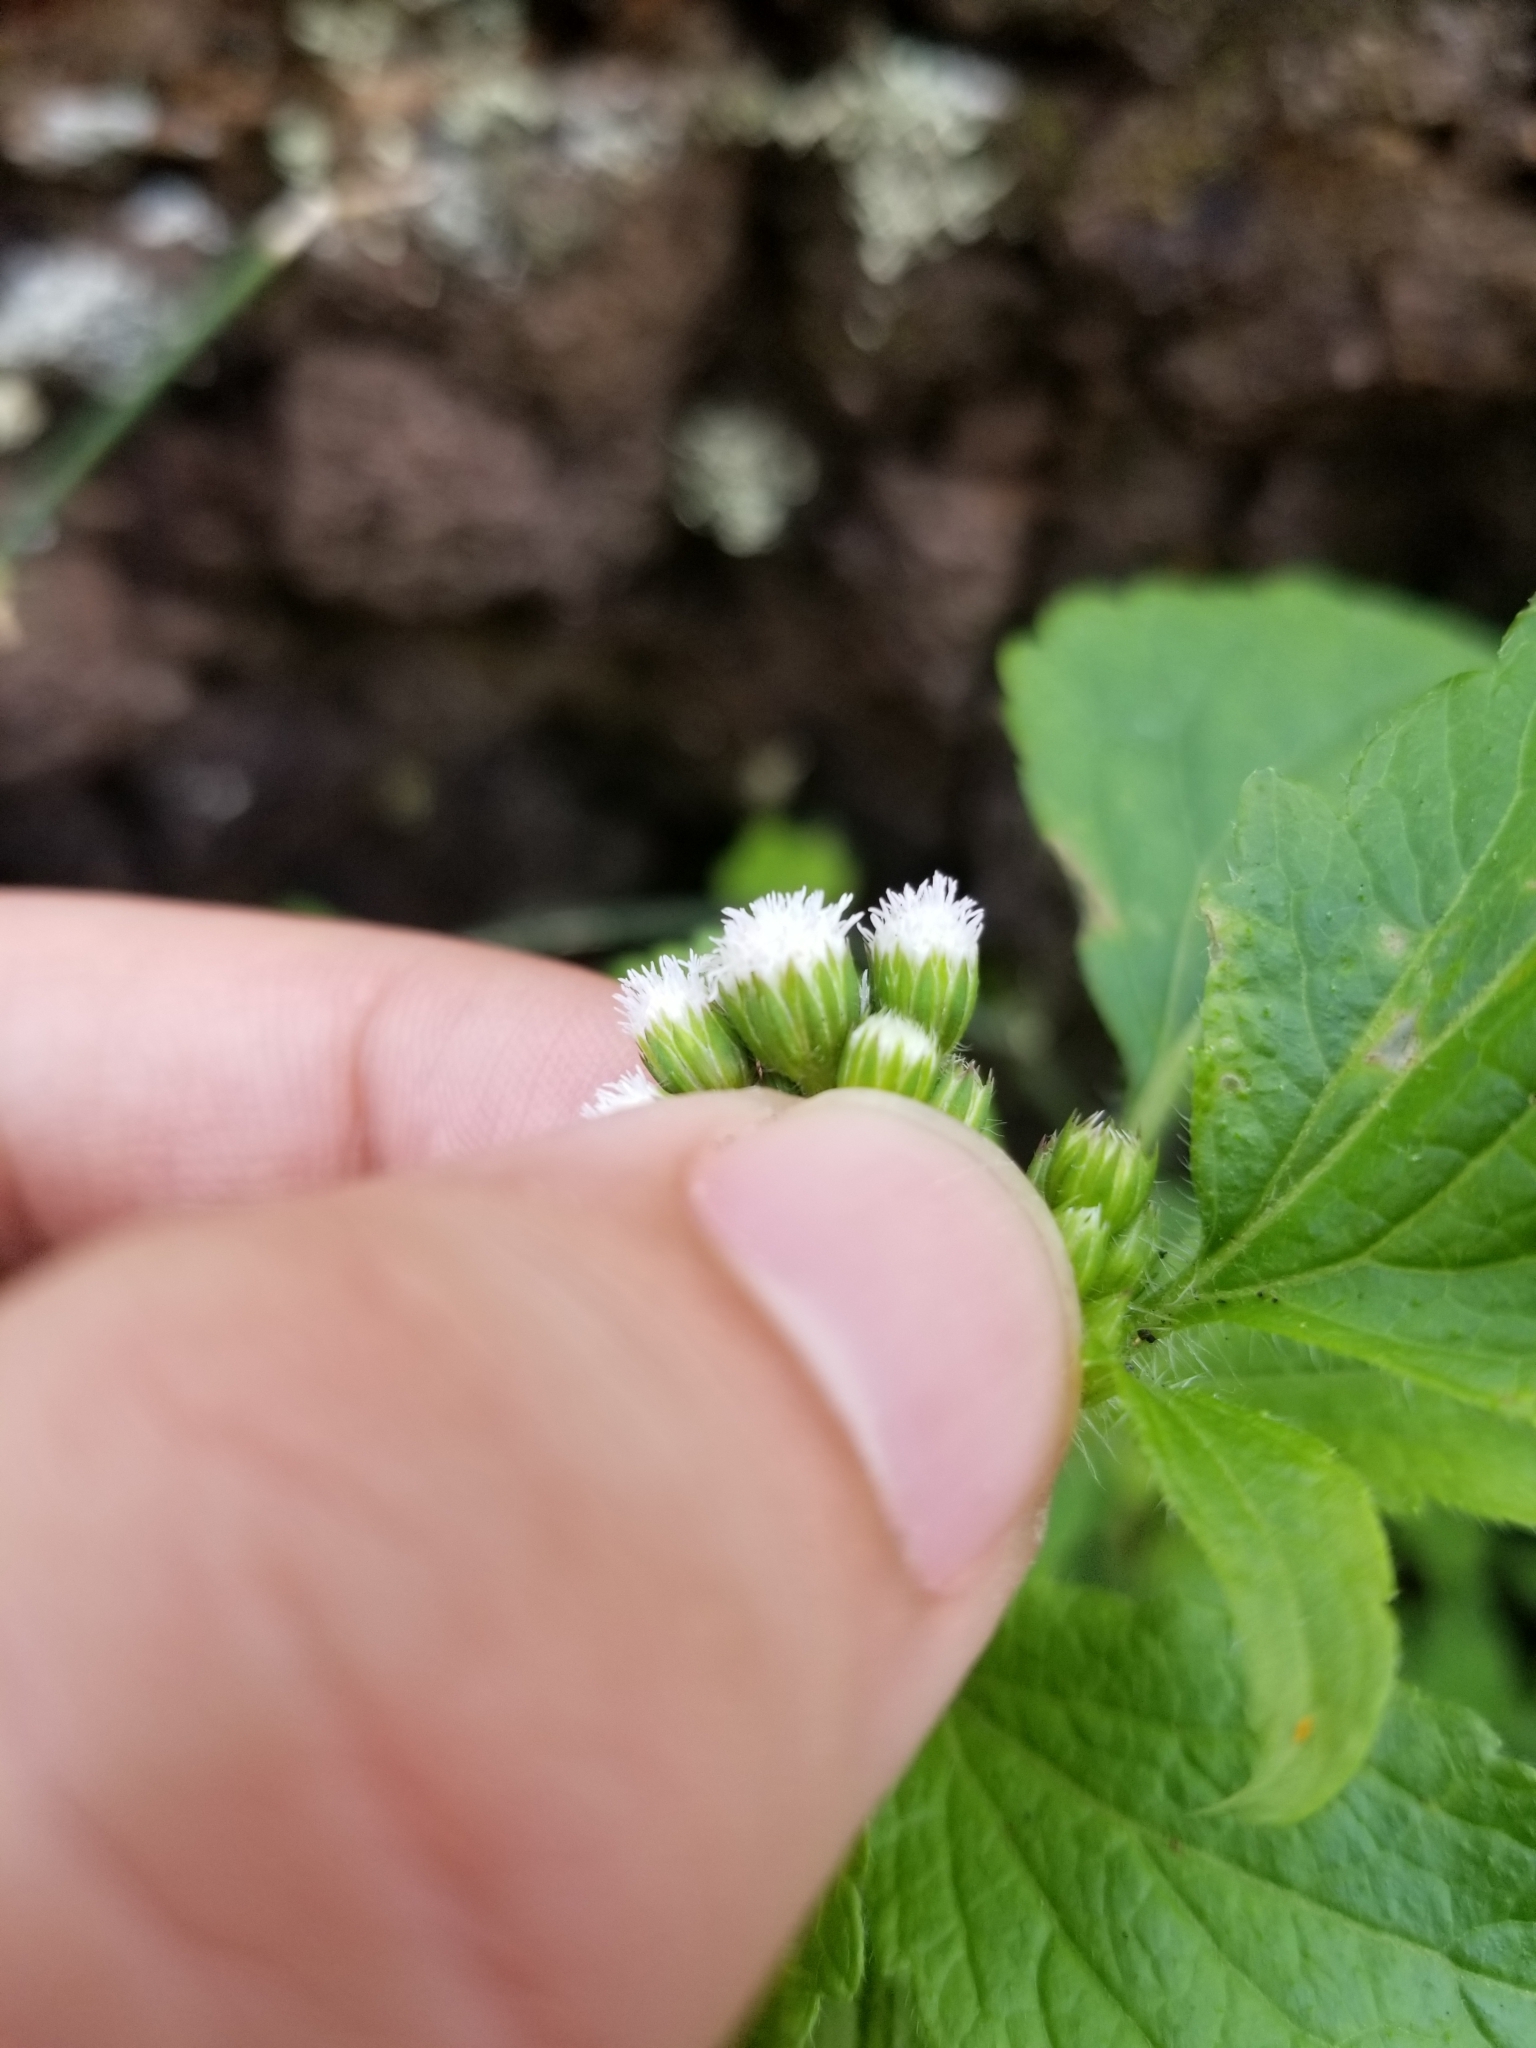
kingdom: Plantae
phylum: Tracheophyta
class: Magnoliopsida
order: Asterales
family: Asteraceae
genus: Ageratum
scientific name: Ageratum conyzoides
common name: Tropical whiteweed
